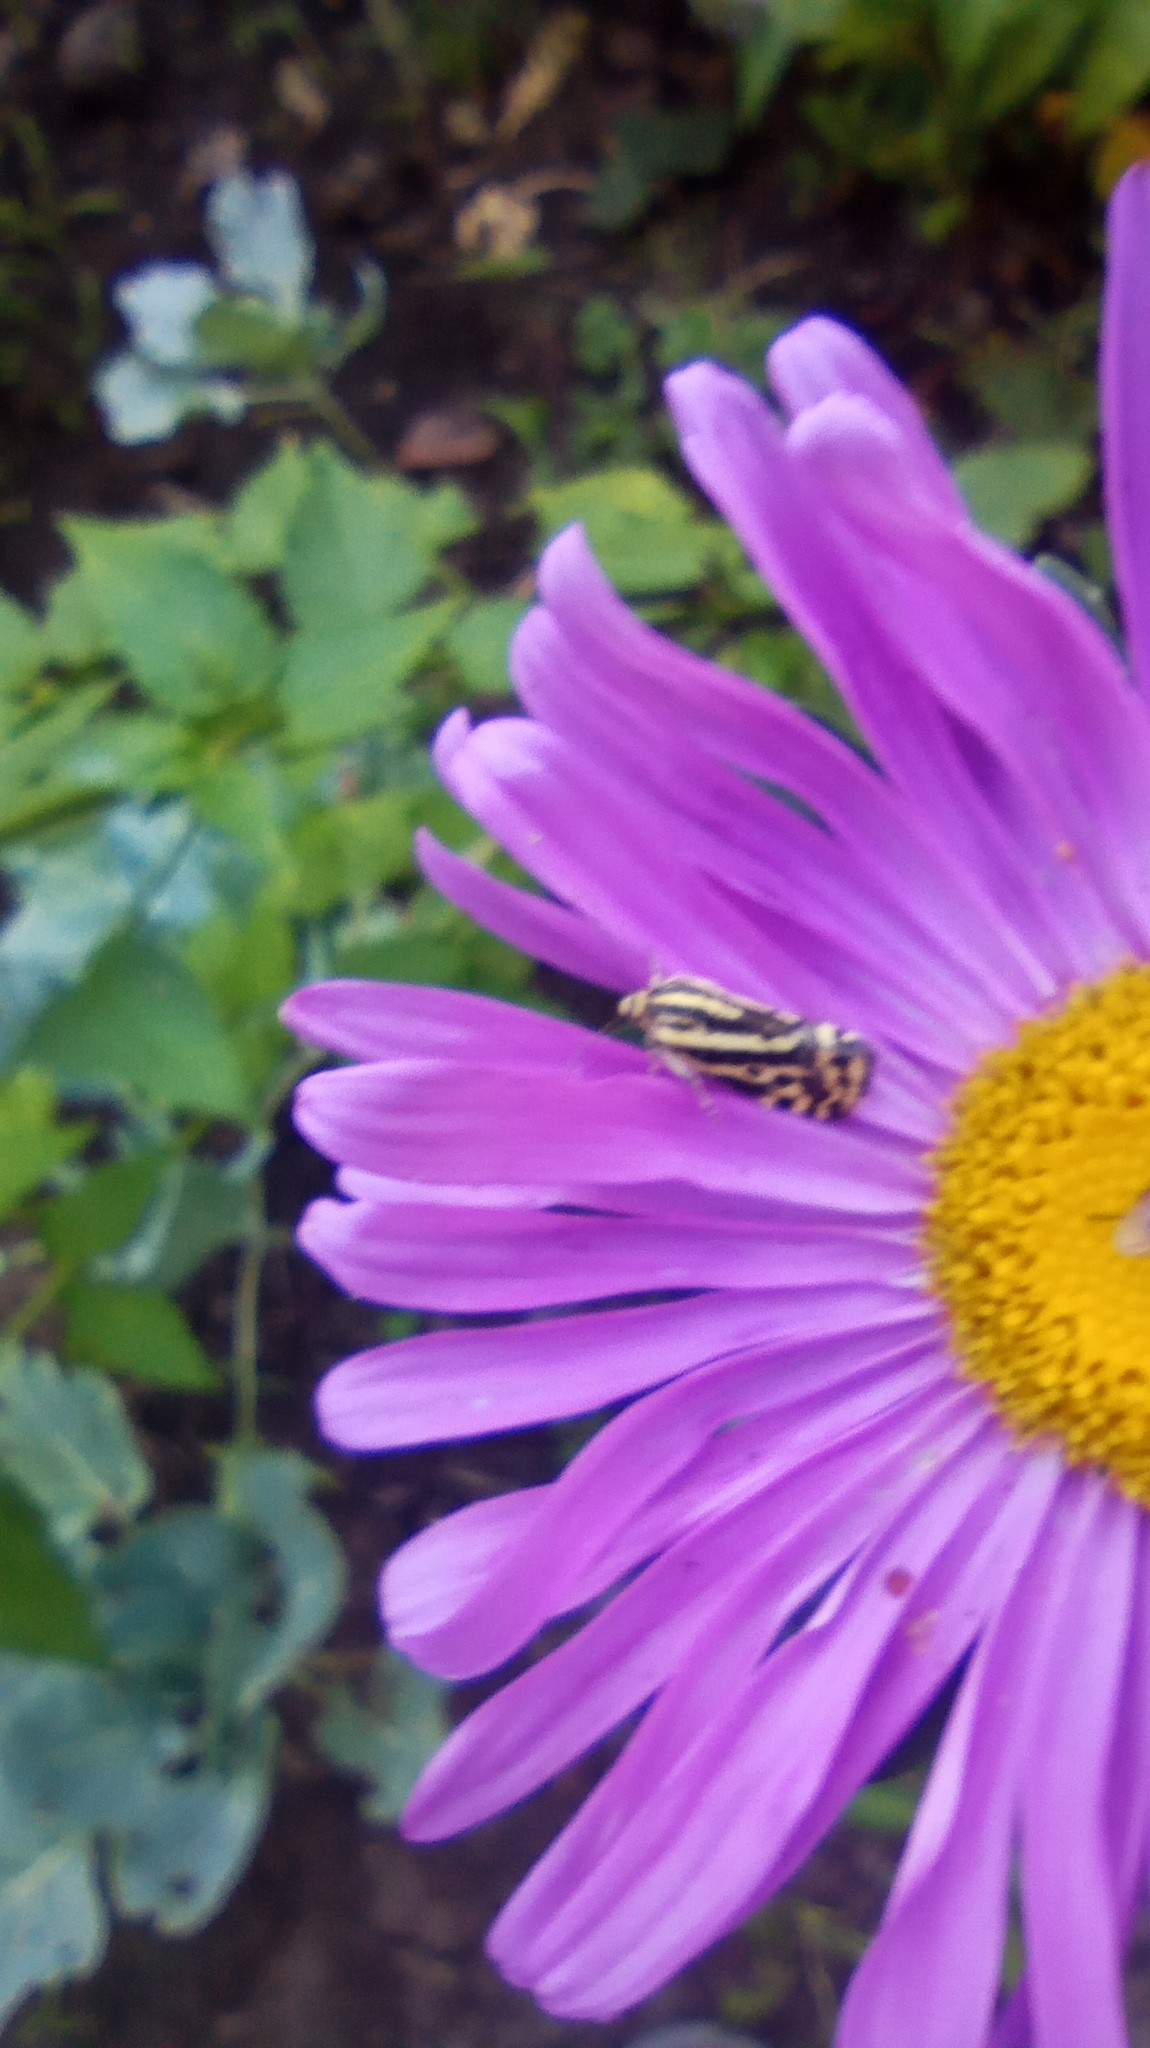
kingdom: Animalia
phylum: Arthropoda
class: Insecta
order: Lepidoptera
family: Noctuidae
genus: Acontia
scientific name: Acontia trabealis
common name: Spotted sulphur
